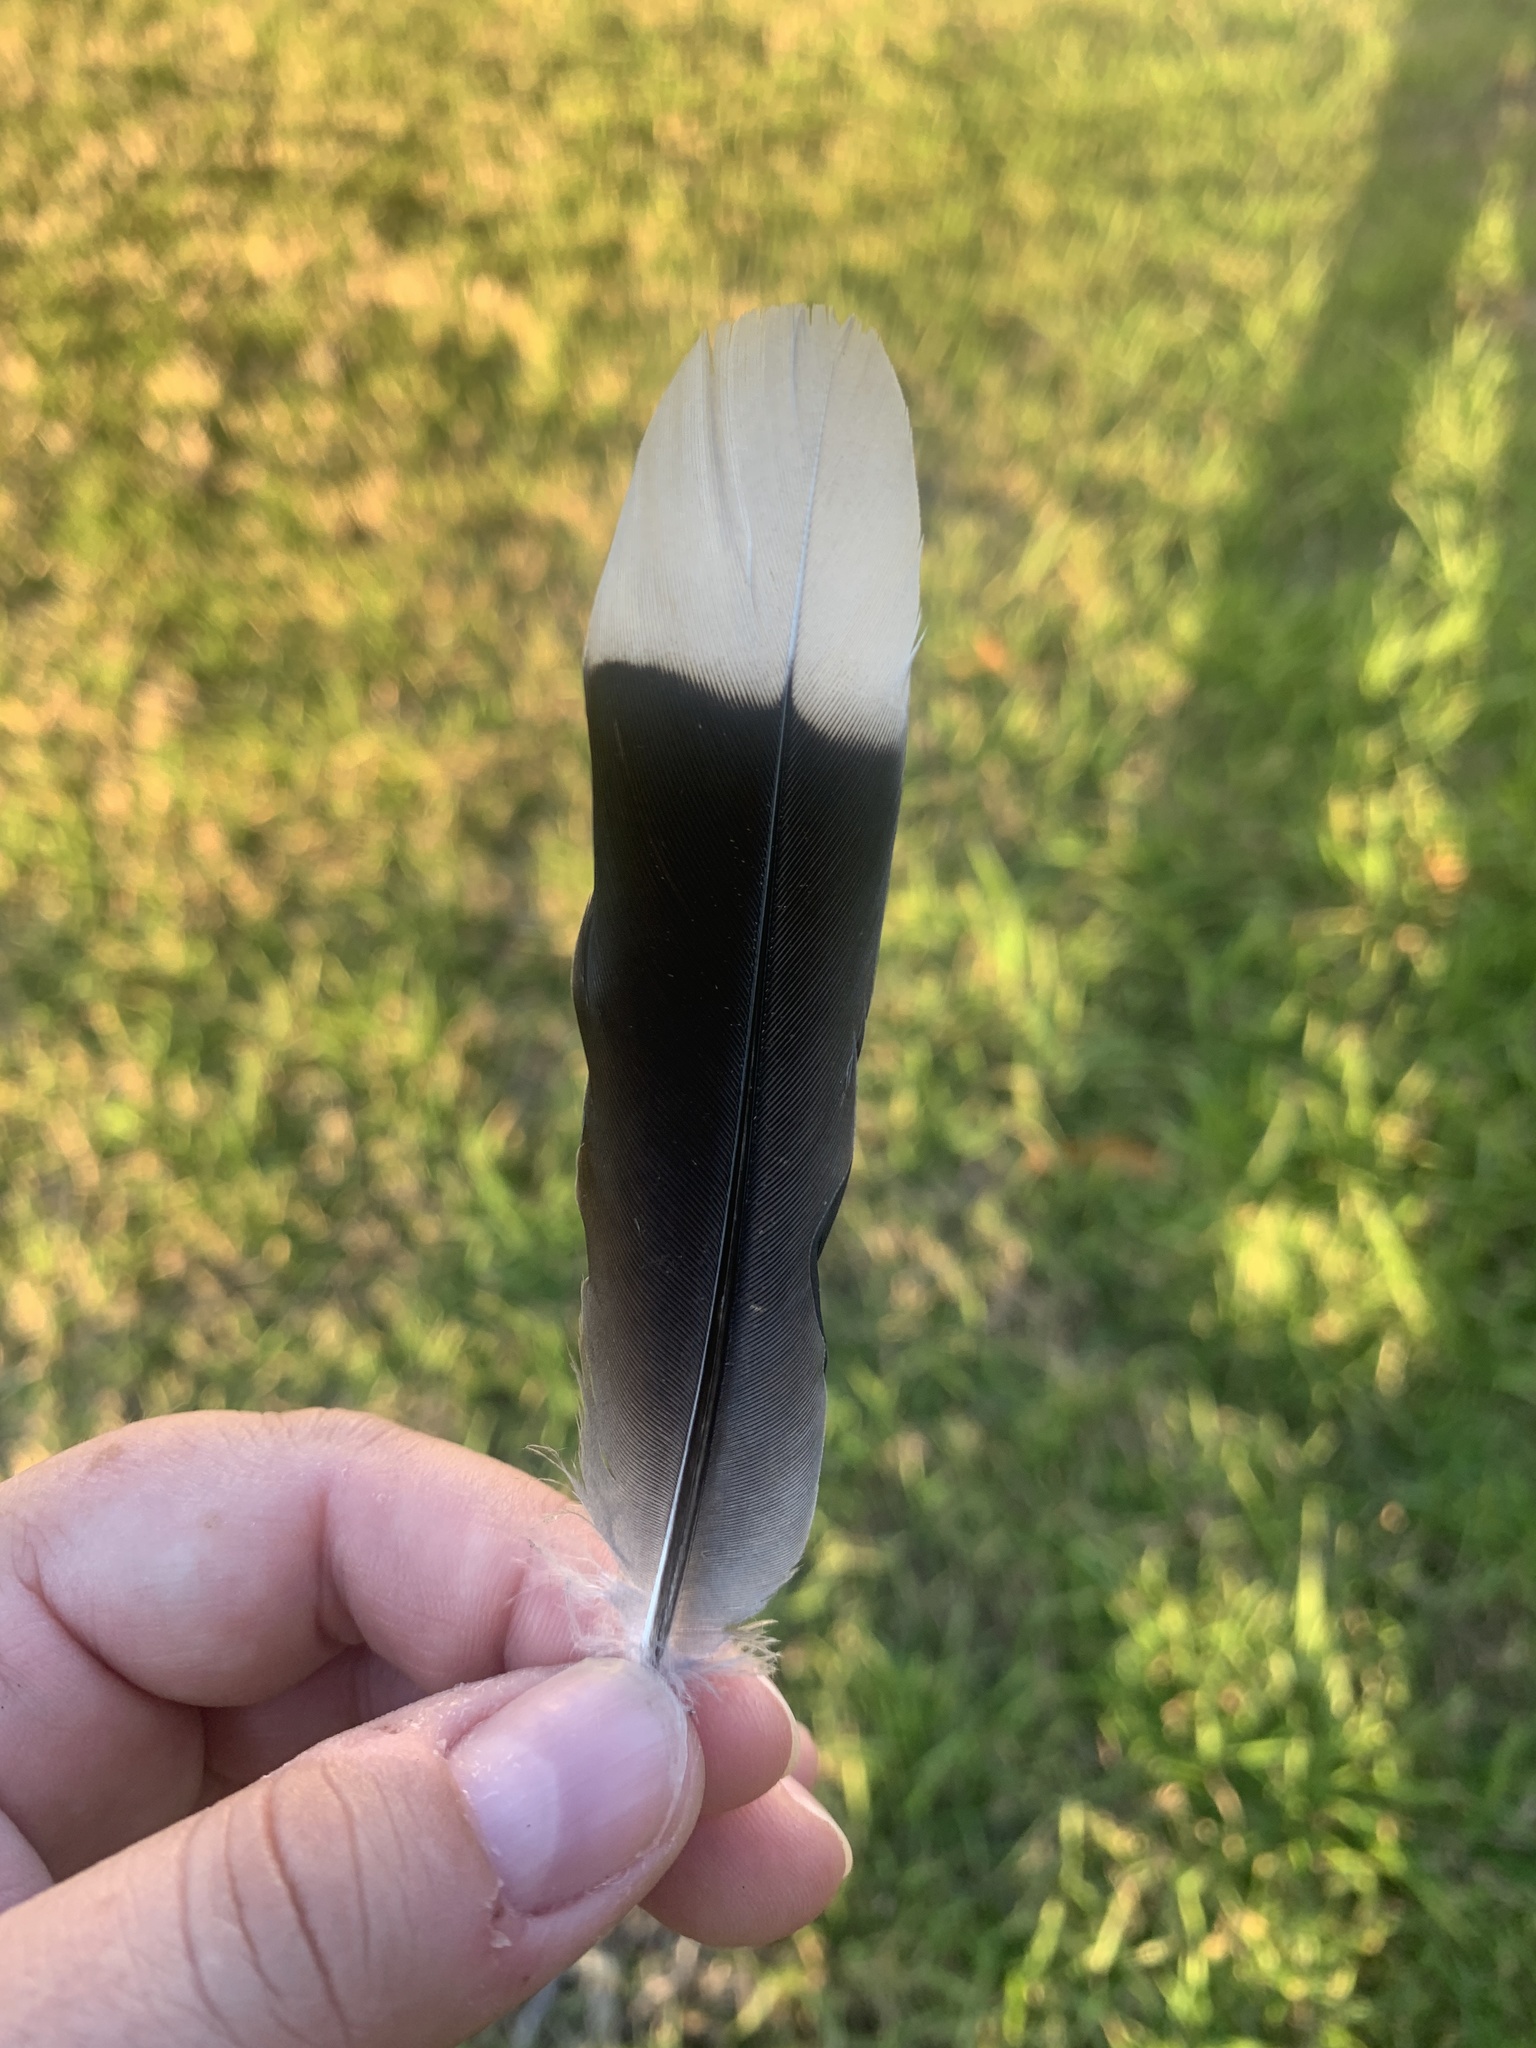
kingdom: Animalia
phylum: Chordata
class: Aves
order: Columbiformes
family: Columbidae
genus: Zenaida
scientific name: Zenaida asiatica
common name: White-winged dove
